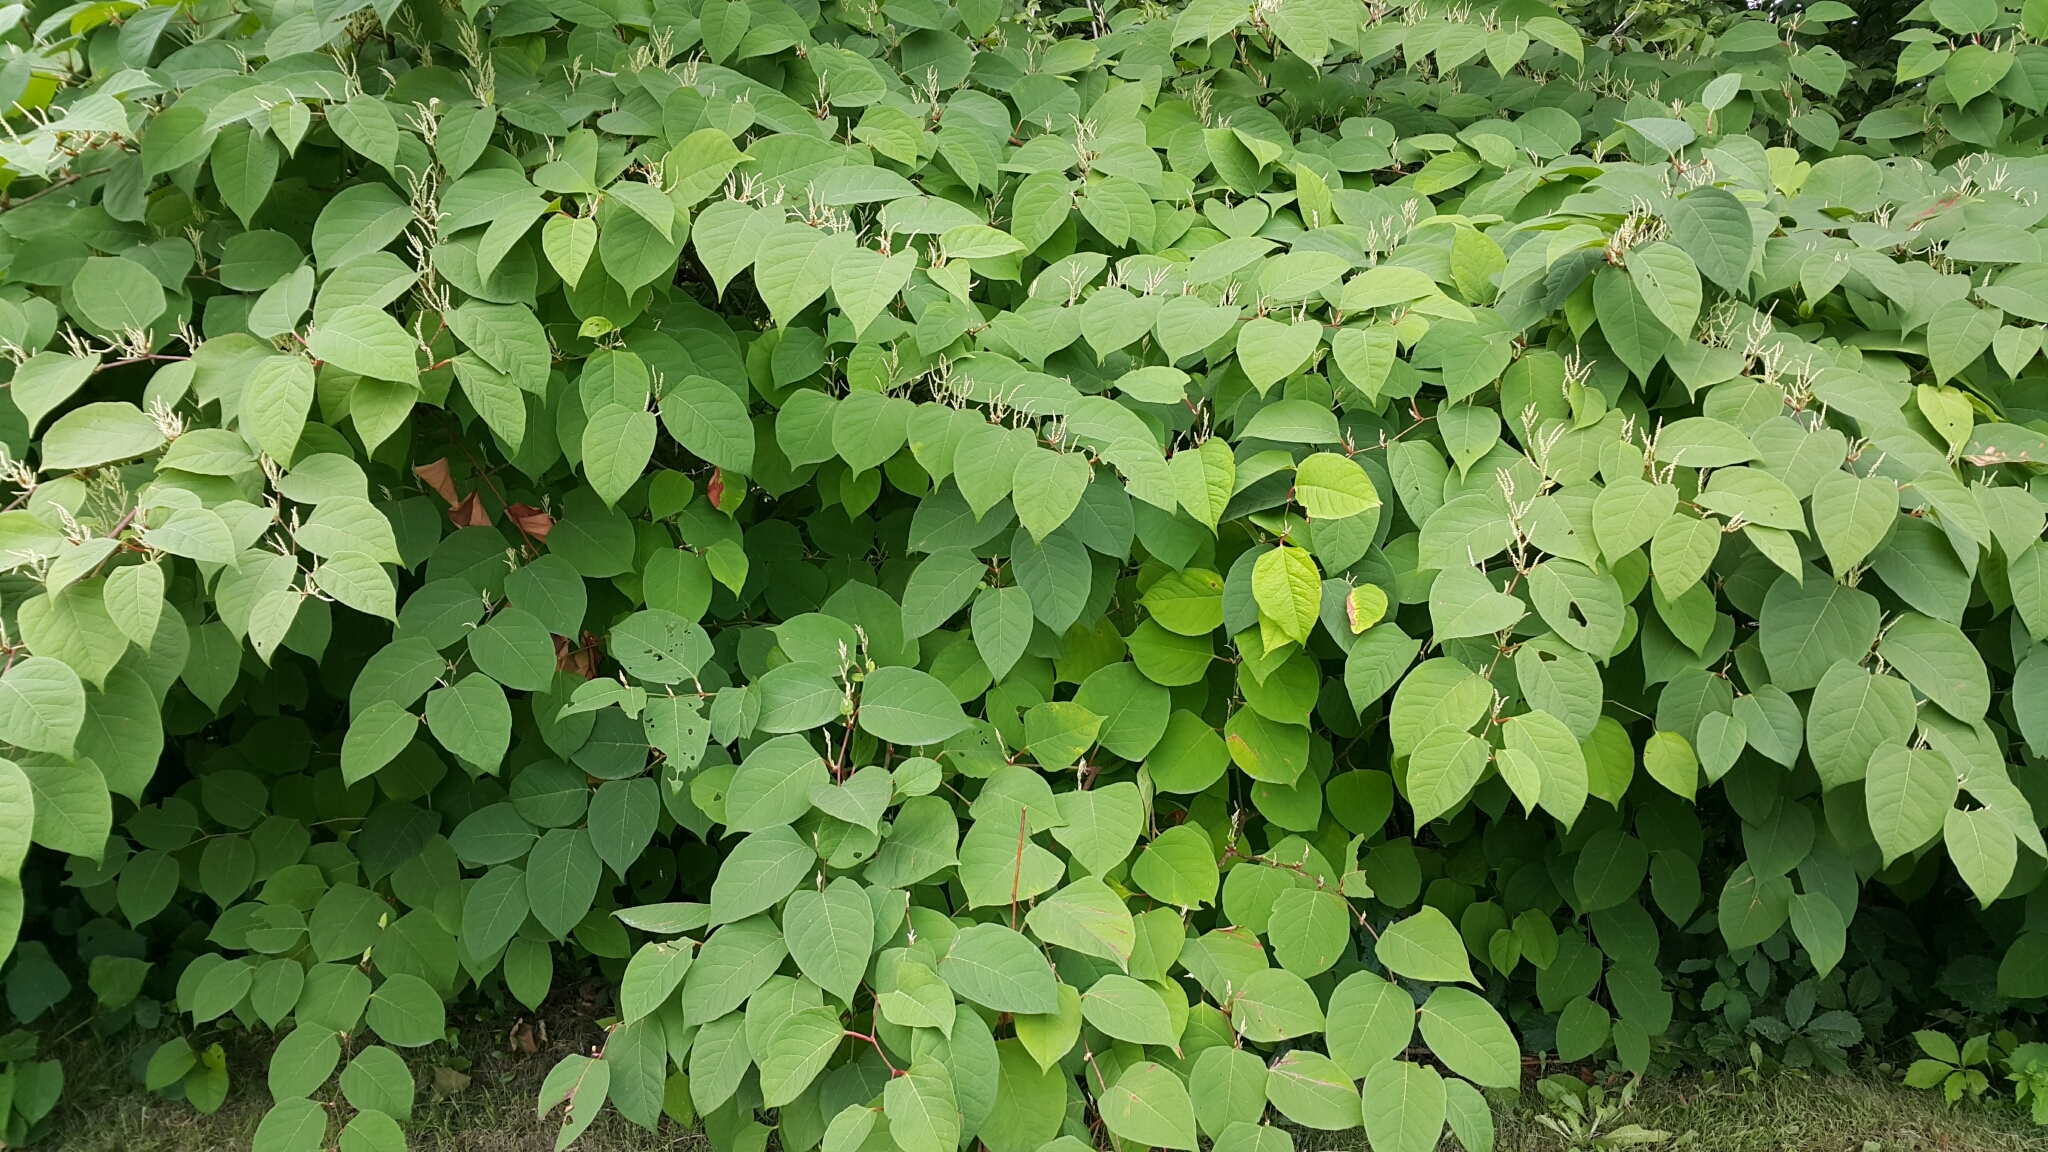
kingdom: Plantae
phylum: Tracheophyta
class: Magnoliopsida
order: Caryophyllales
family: Polygonaceae
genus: Reynoutria
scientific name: Reynoutria japonica
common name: Japanese knotweed
